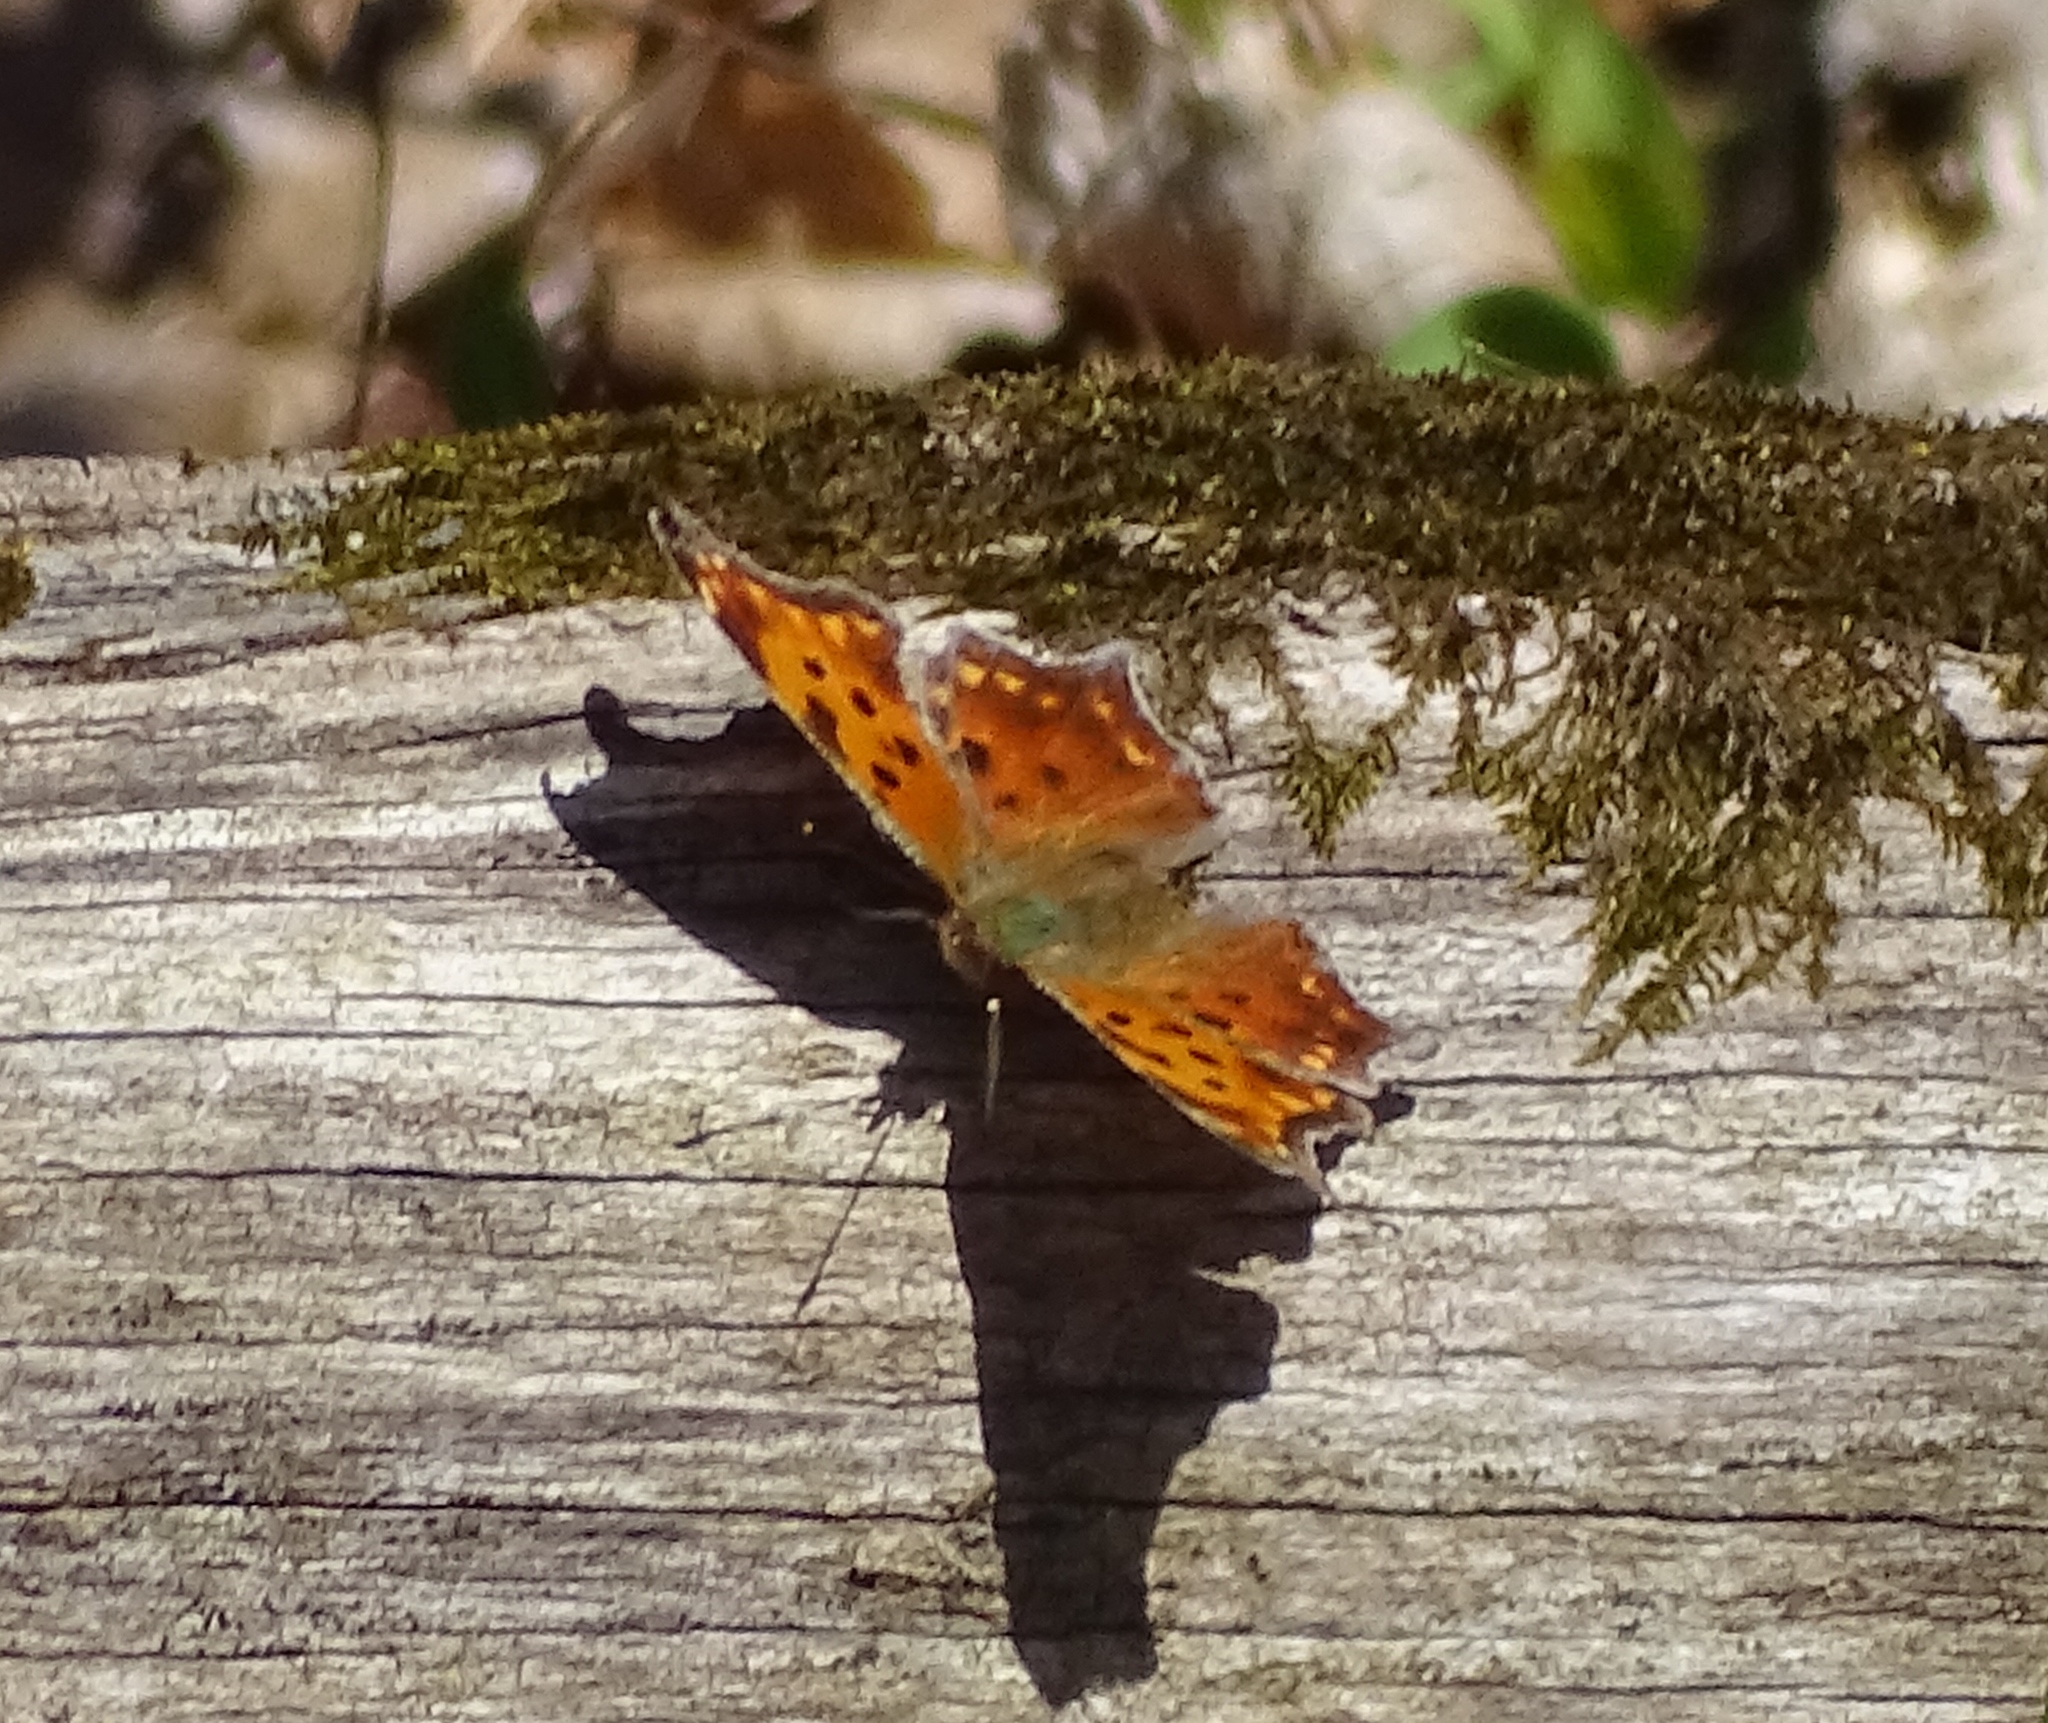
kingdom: Animalia
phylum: Arthropoda
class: Insecta
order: Lepidoptera
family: Nymphalidae
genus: Polygonia
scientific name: Polygonia comma
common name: Eastern comma
